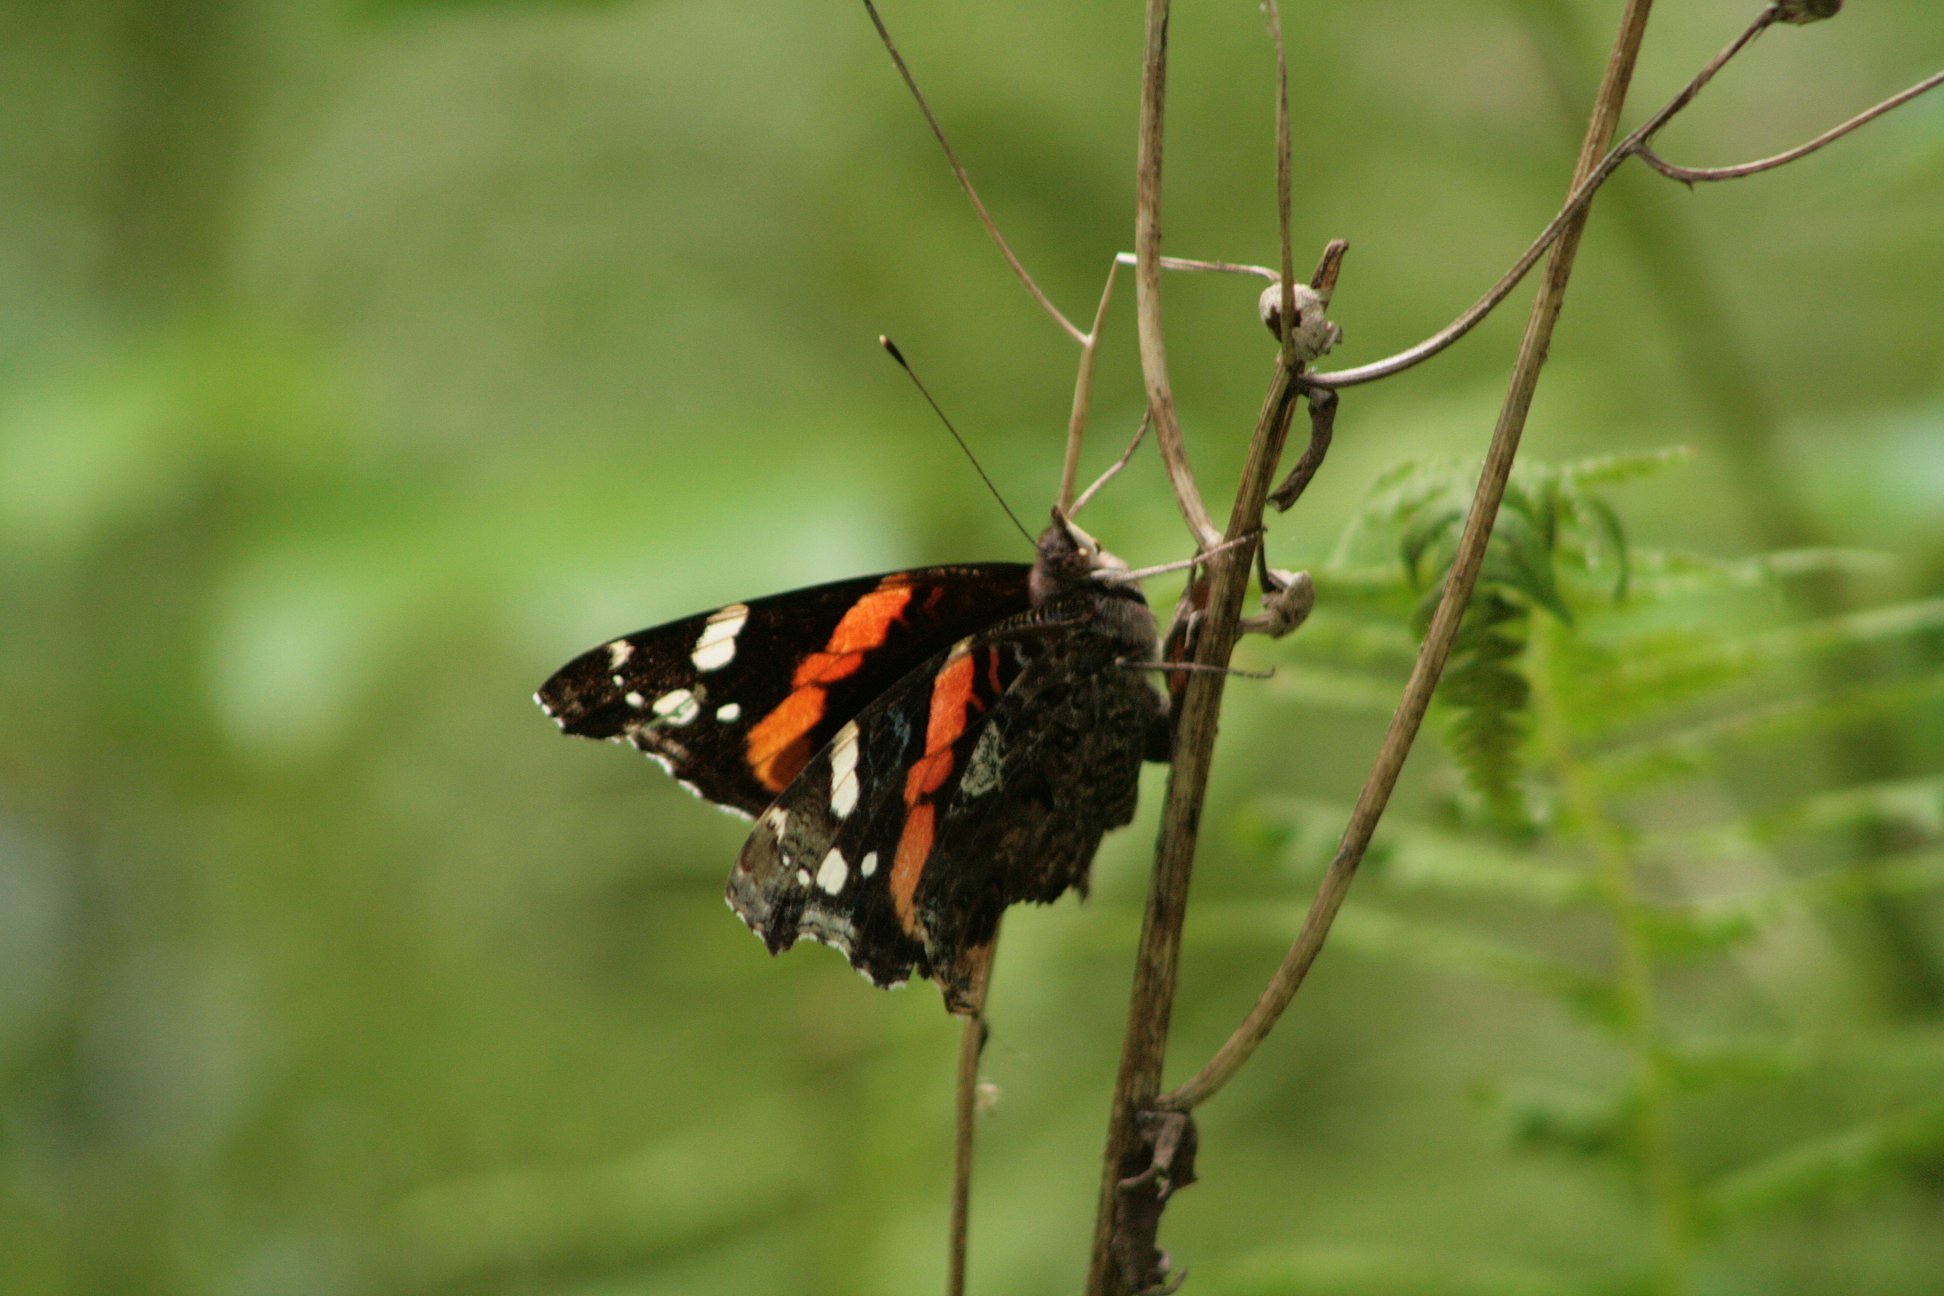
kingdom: Animalia
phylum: Arthropoda
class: Insecta
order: Lepidoptera
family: Nymphalidae
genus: Vanessa
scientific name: Vanessa atalanta
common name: Red admiral
